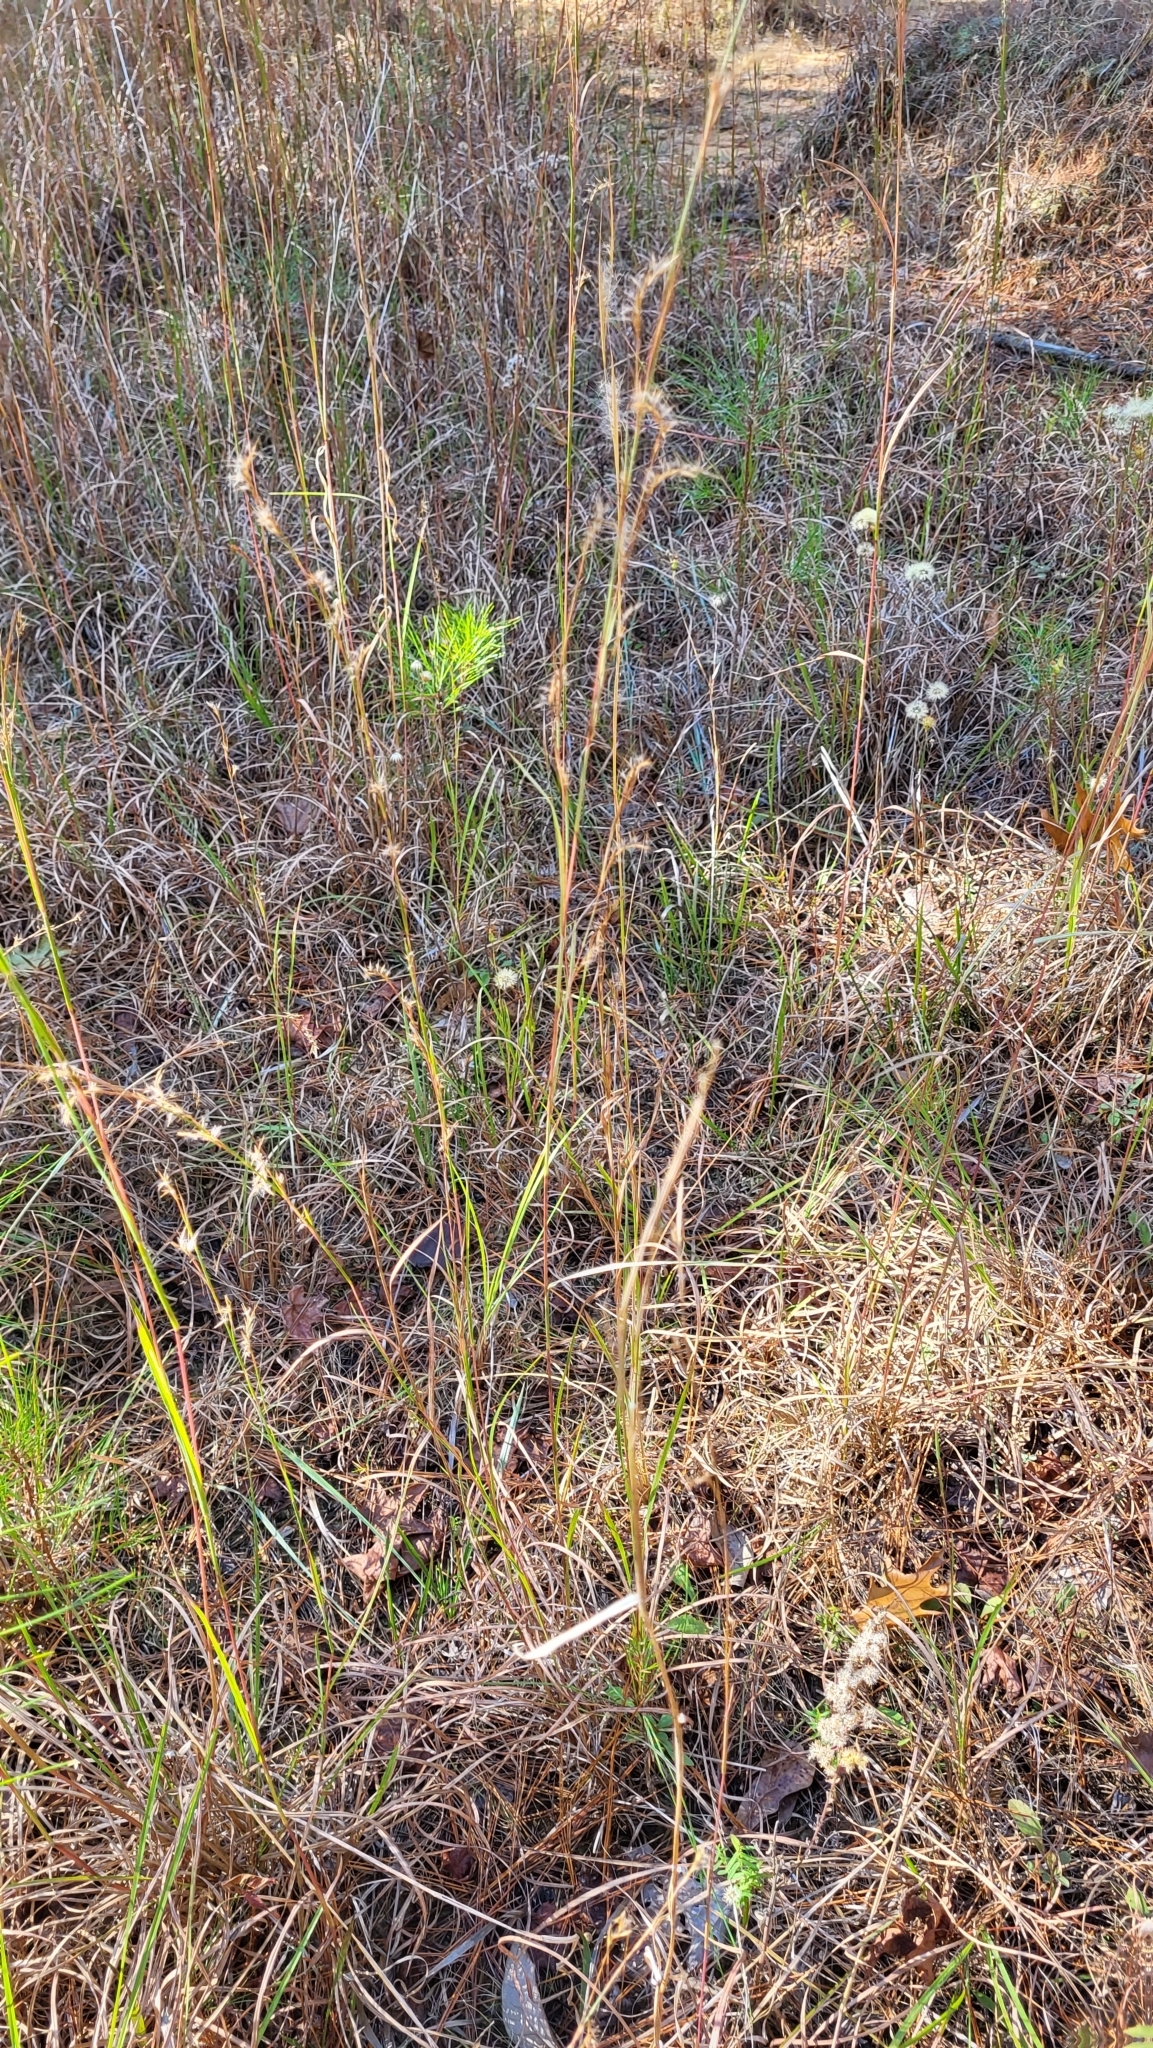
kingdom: Plantae
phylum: Tracheophyta
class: Liliopsida
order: Poales
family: Poaceae
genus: Schizachyrium
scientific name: Schizachyrium scoparium
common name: Little bluestem
